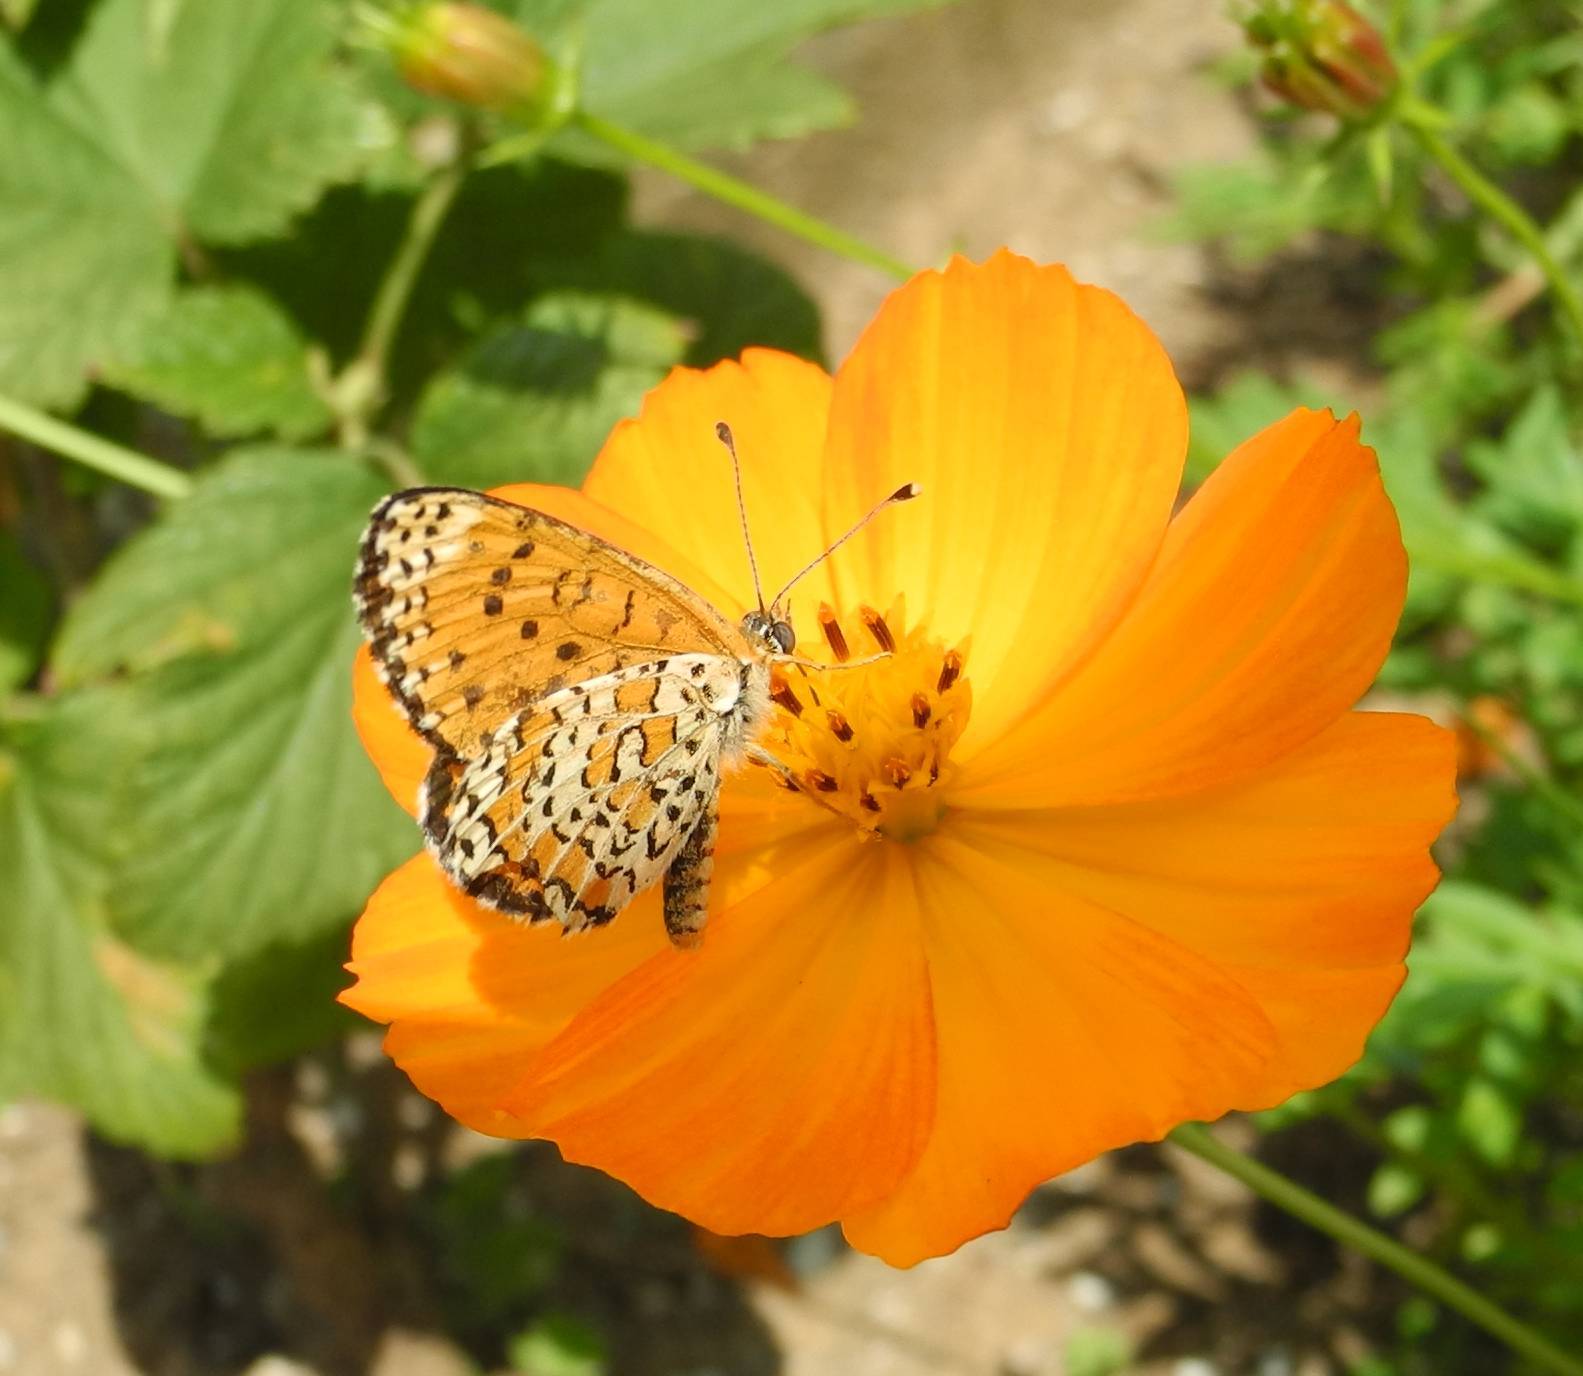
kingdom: Animalia
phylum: Arthropoda
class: Insecta
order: Lepidoptera
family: Nymphalidae
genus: Melitaea
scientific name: Melitaea trivia
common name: Lesser spotted fritillary
